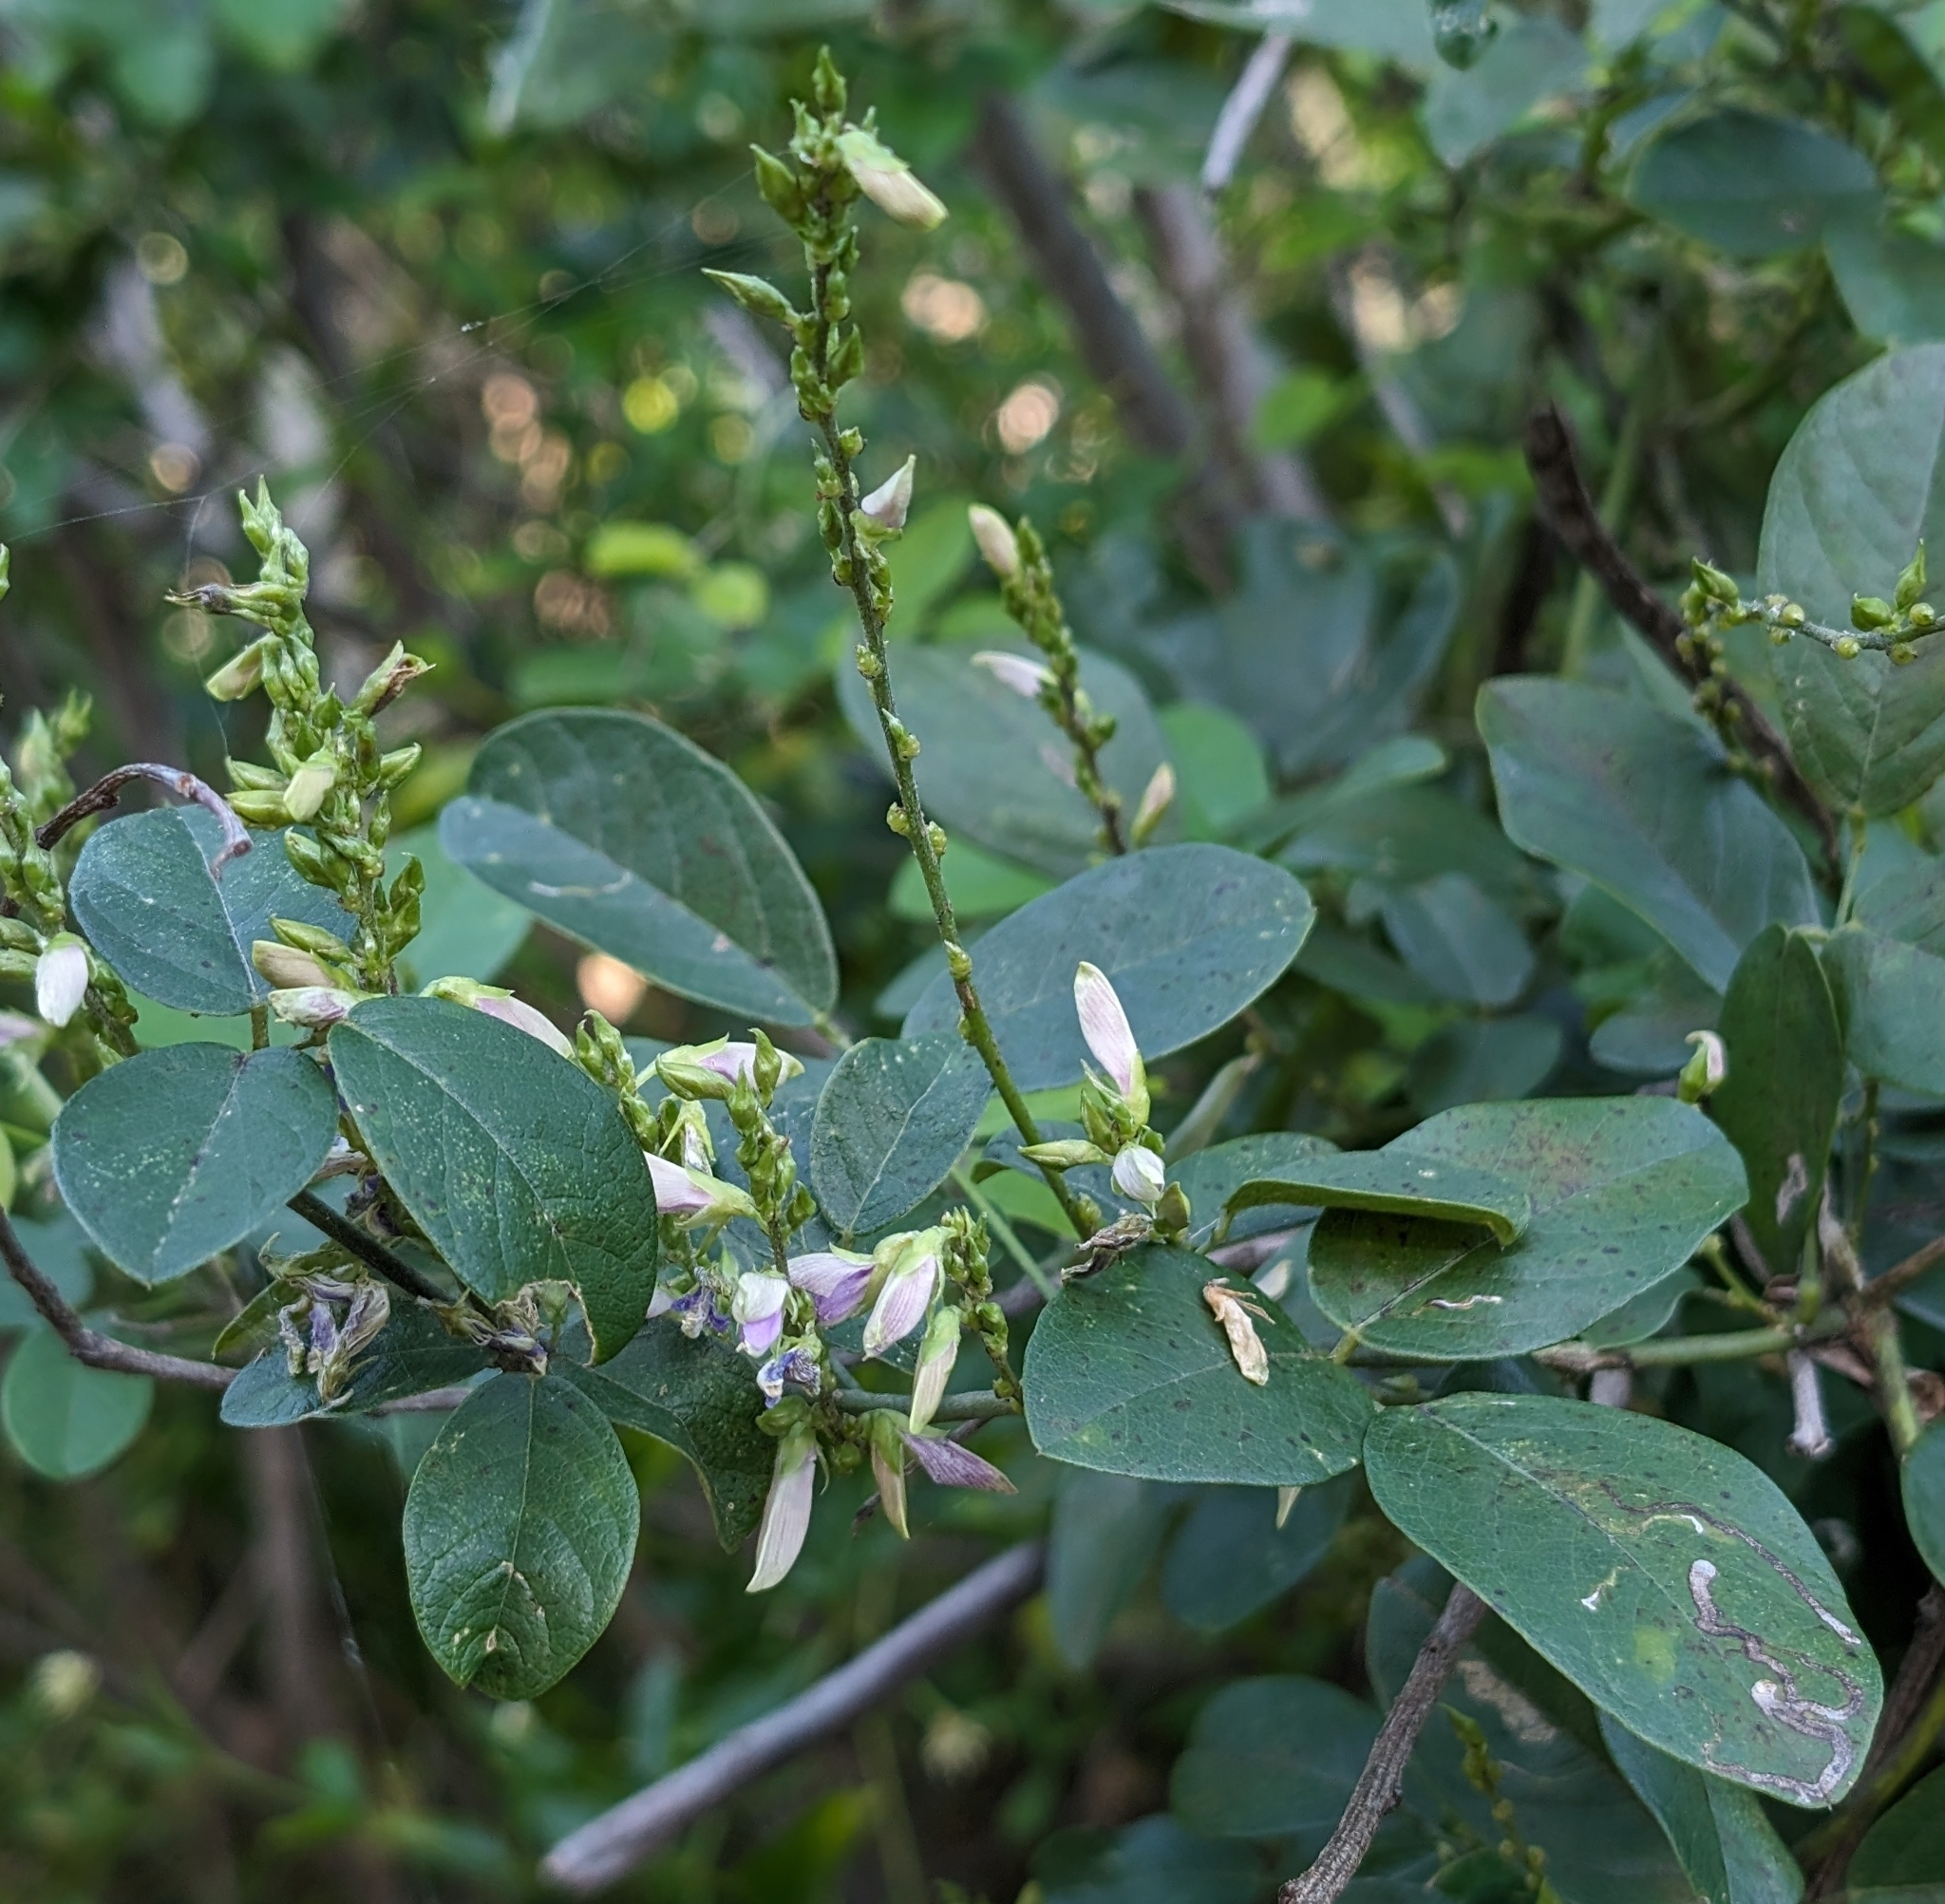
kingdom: Plantae
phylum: Tracheophyta
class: Magnoliopsida
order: Fabales
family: Fabaceae
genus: Galactia
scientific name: Galactia striata
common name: Florida hammock milkpea
